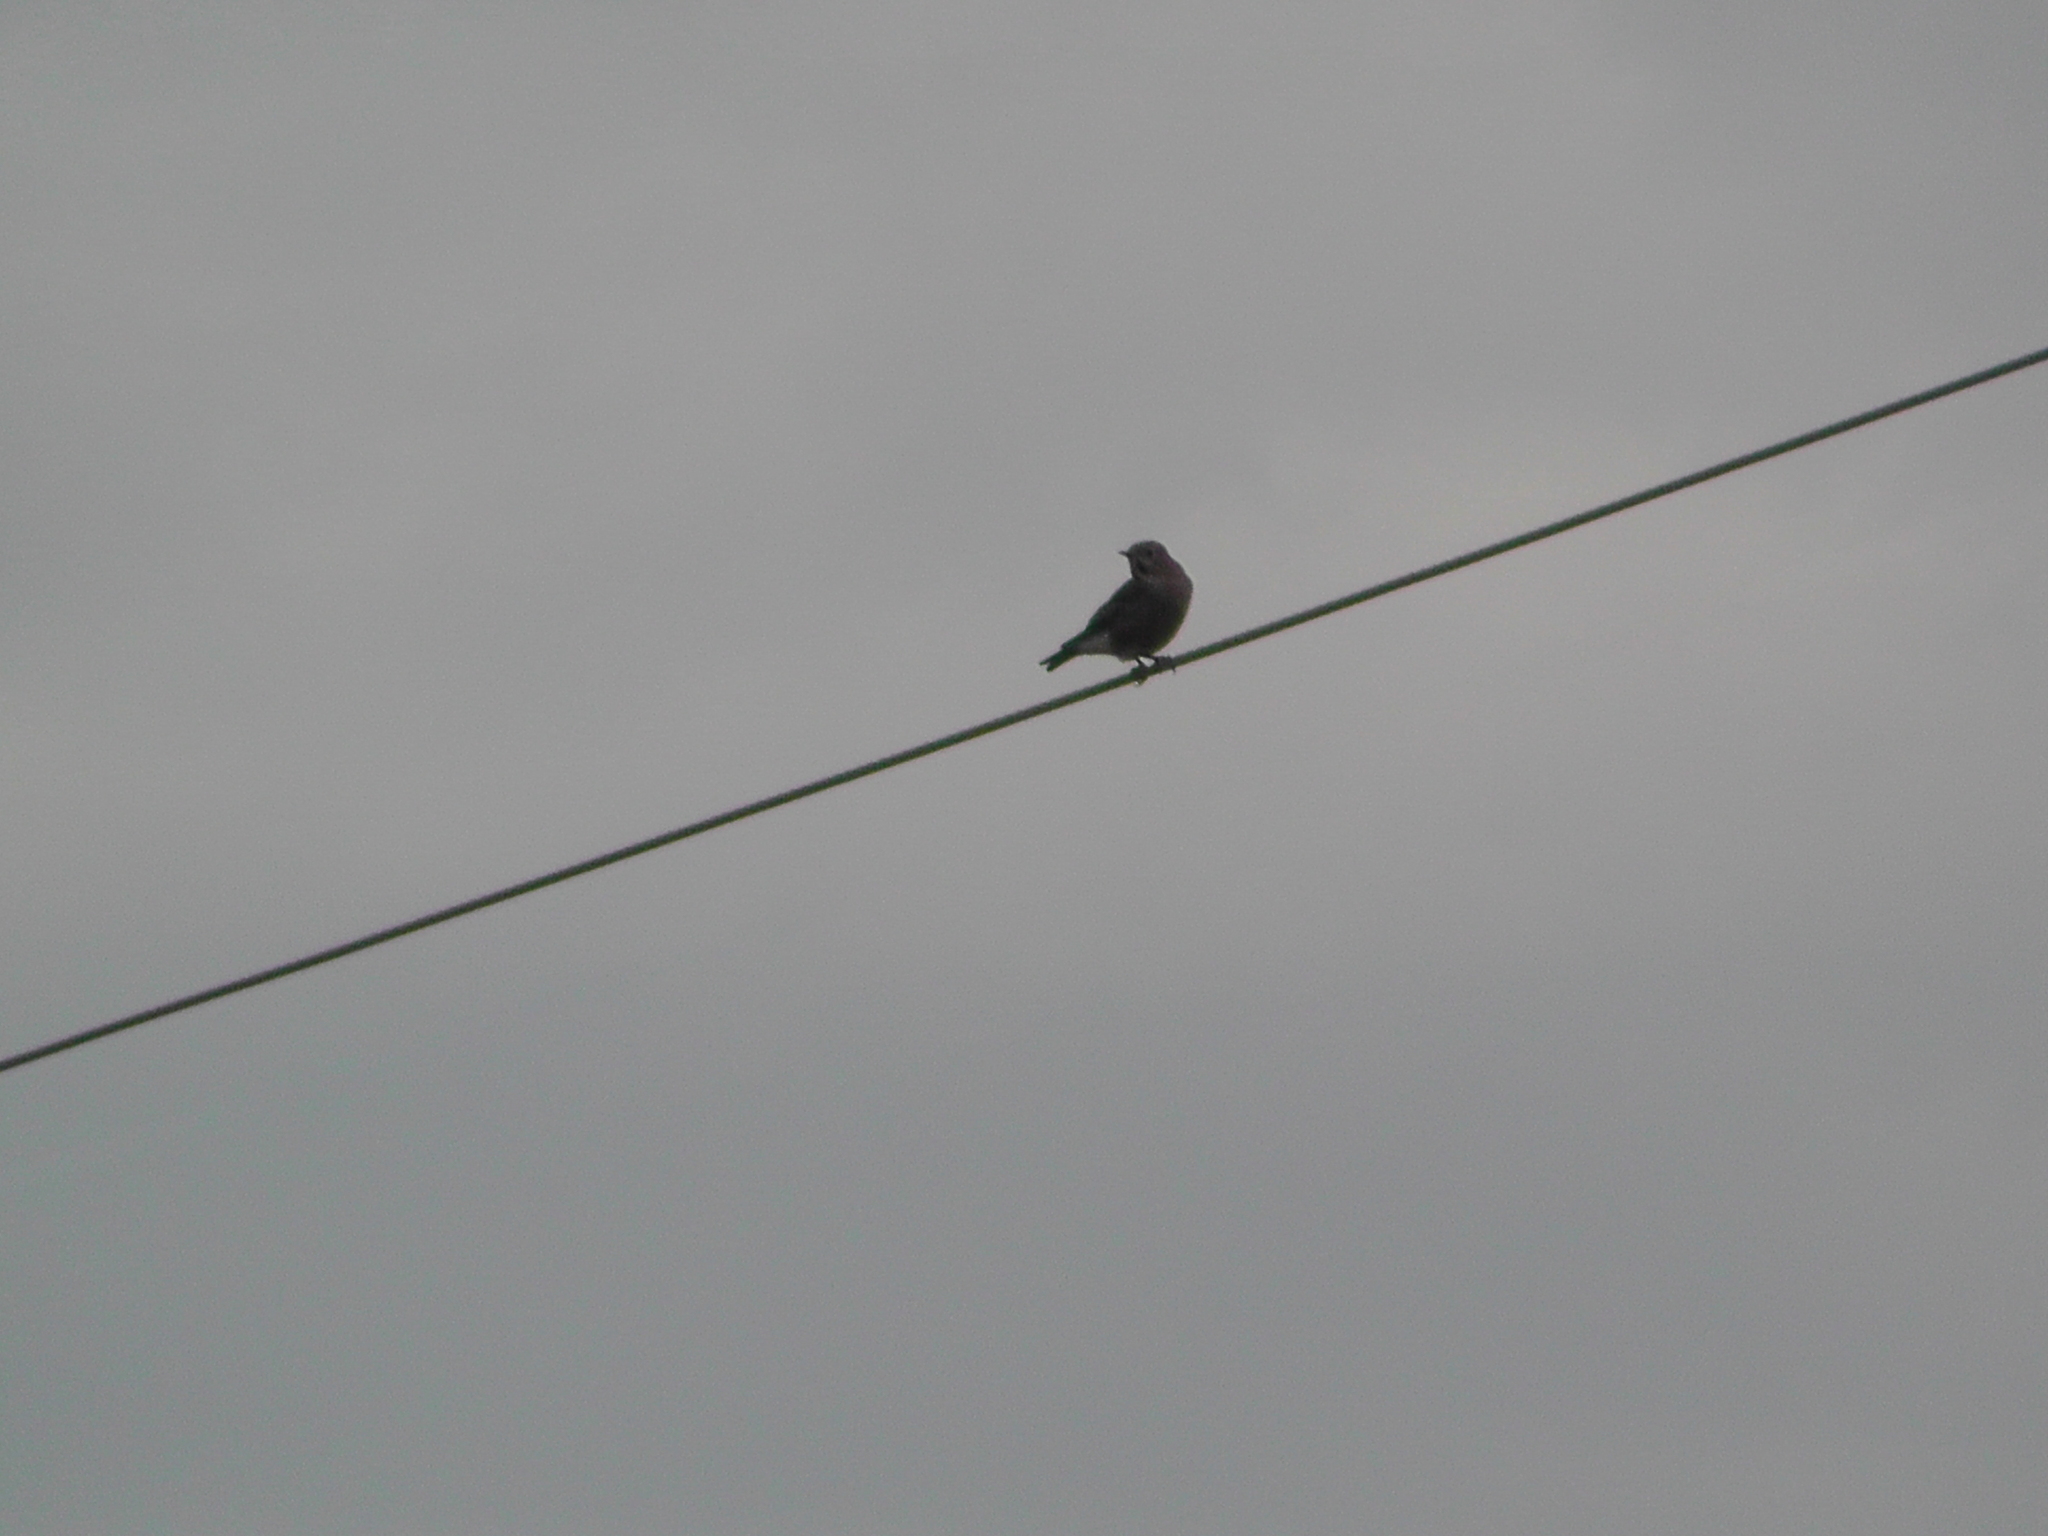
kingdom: Animalia
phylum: Chordata
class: Aves
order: Passeriformes
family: Turdidae
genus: Sialia
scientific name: Sialia currucoides
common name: Mountain bluebird
